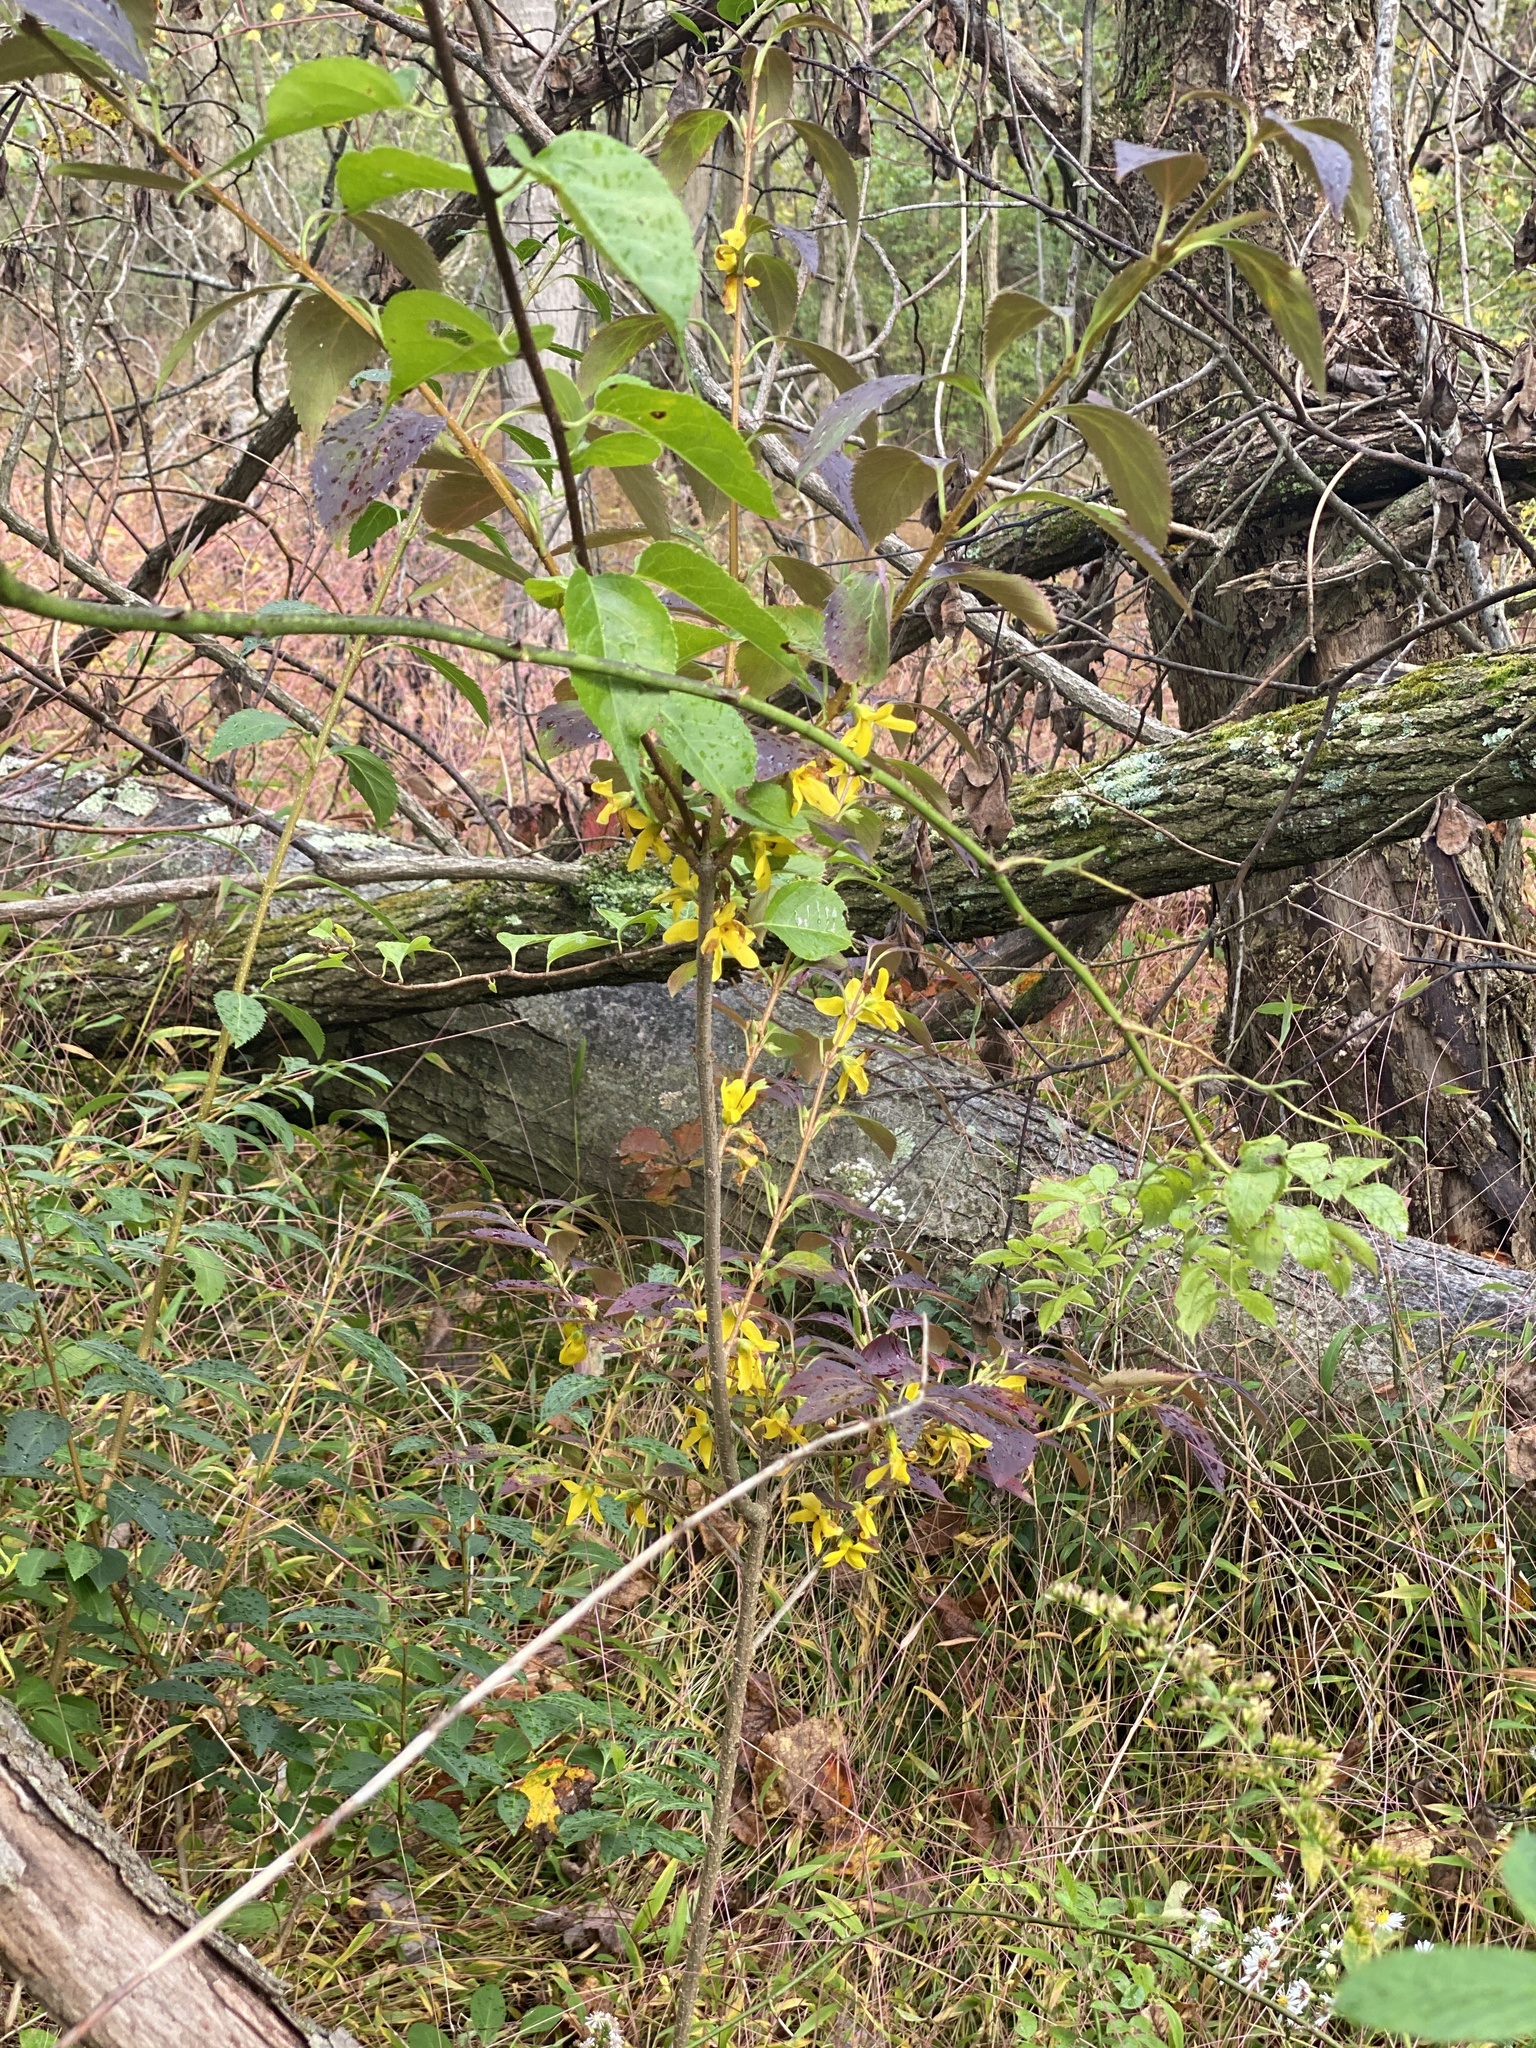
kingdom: Plantae
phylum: Tracheophyta
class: Magnoliopsida
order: Lamiales
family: Oleaceae
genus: Forsythia
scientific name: Forsythia intermedia
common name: Forsythia
